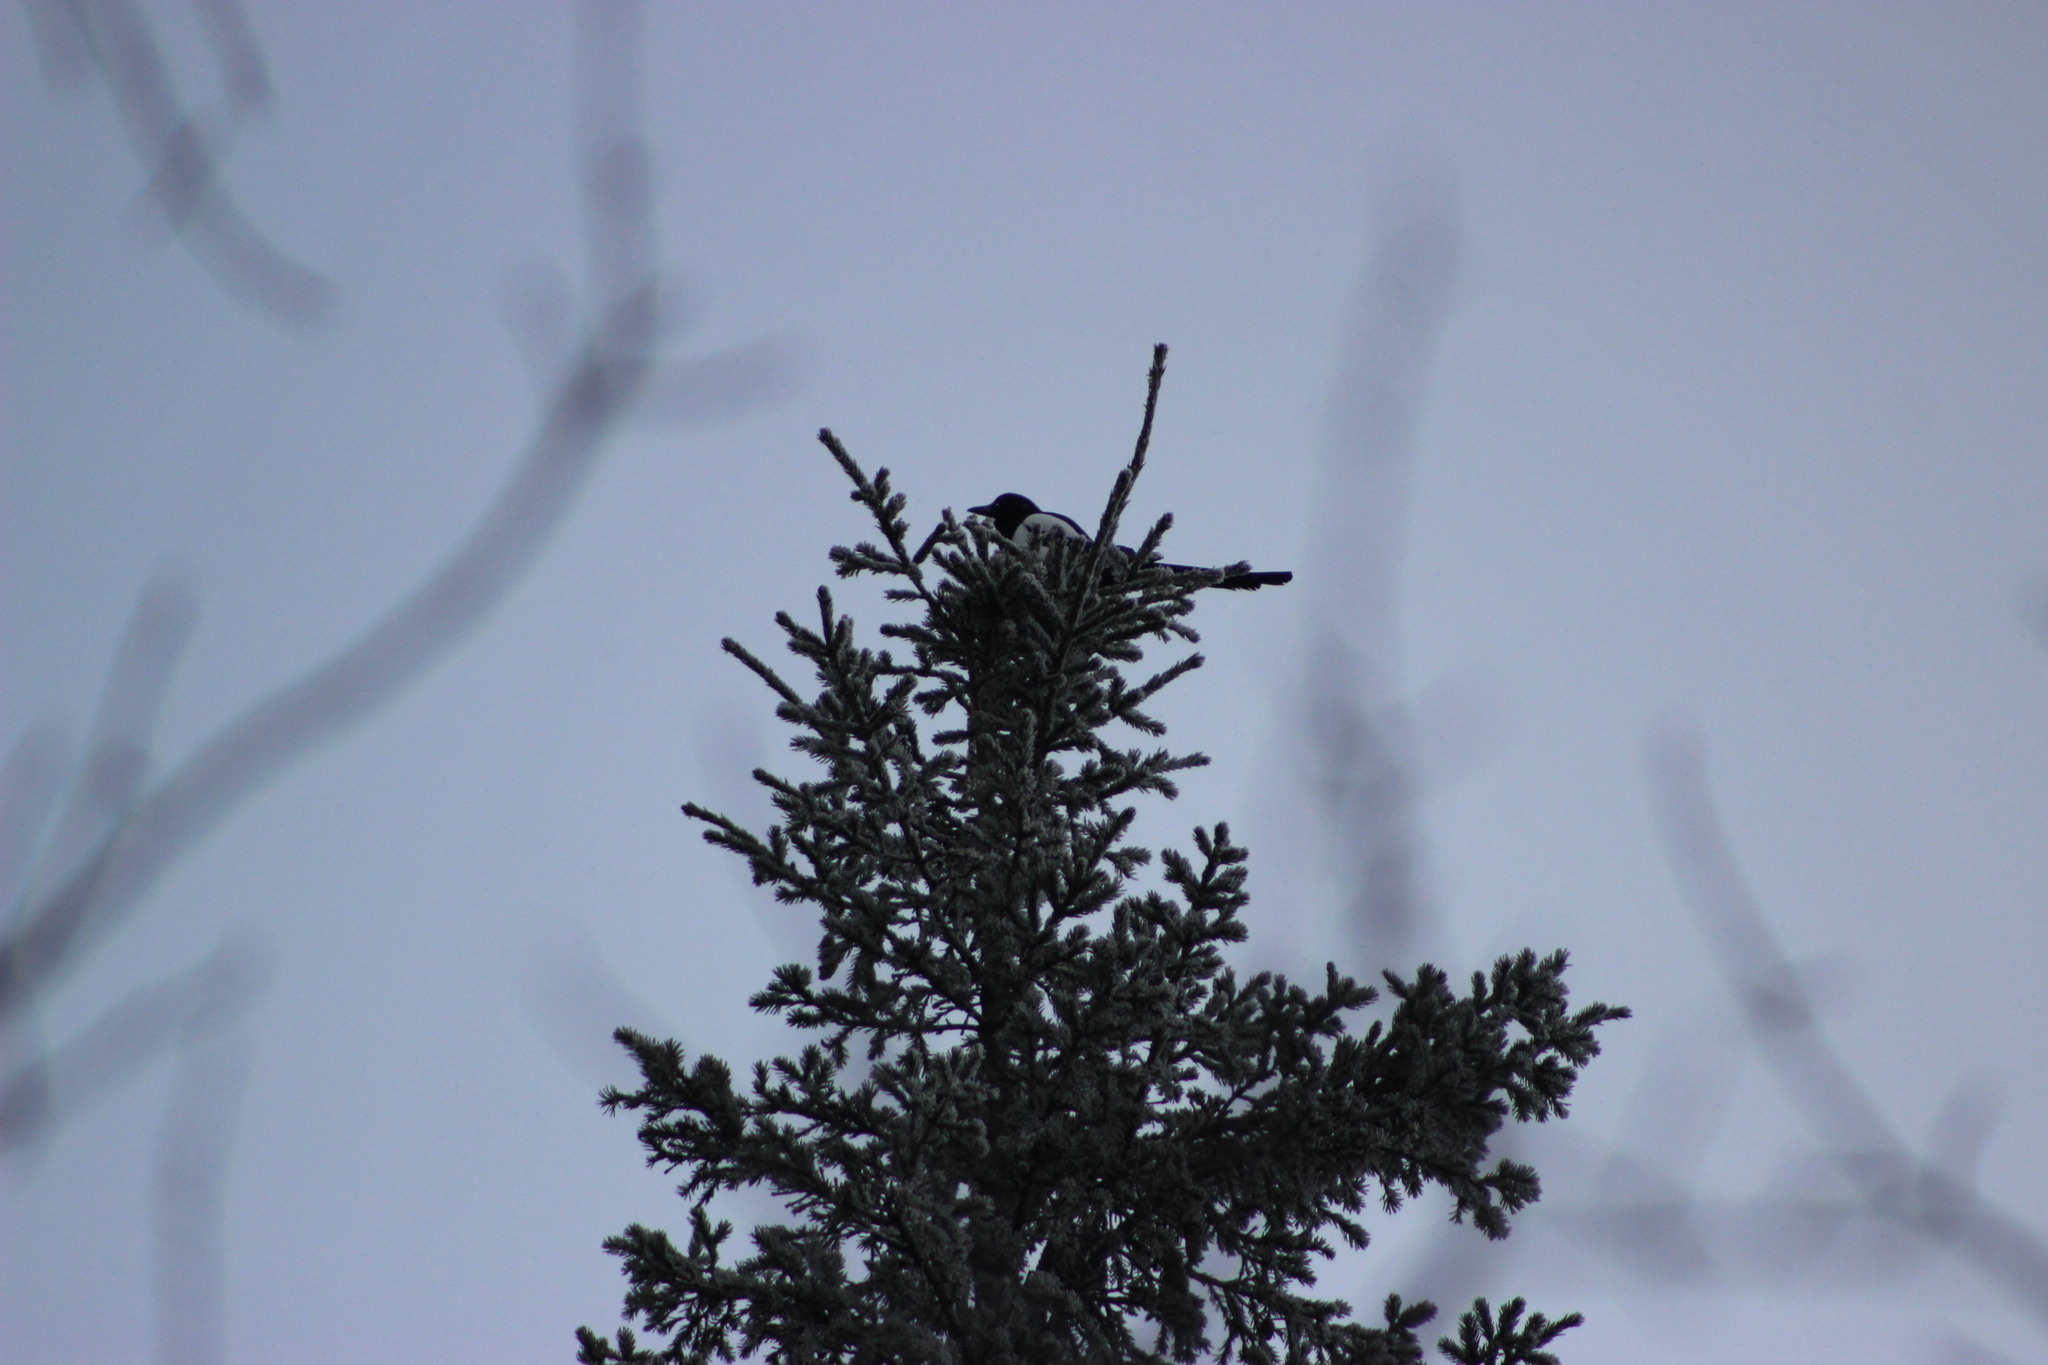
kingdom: Animalia
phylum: Chordata
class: Aves
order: Passeriformes
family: Corvidae
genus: Pica
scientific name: Pica pica
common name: Eurasian magpie
